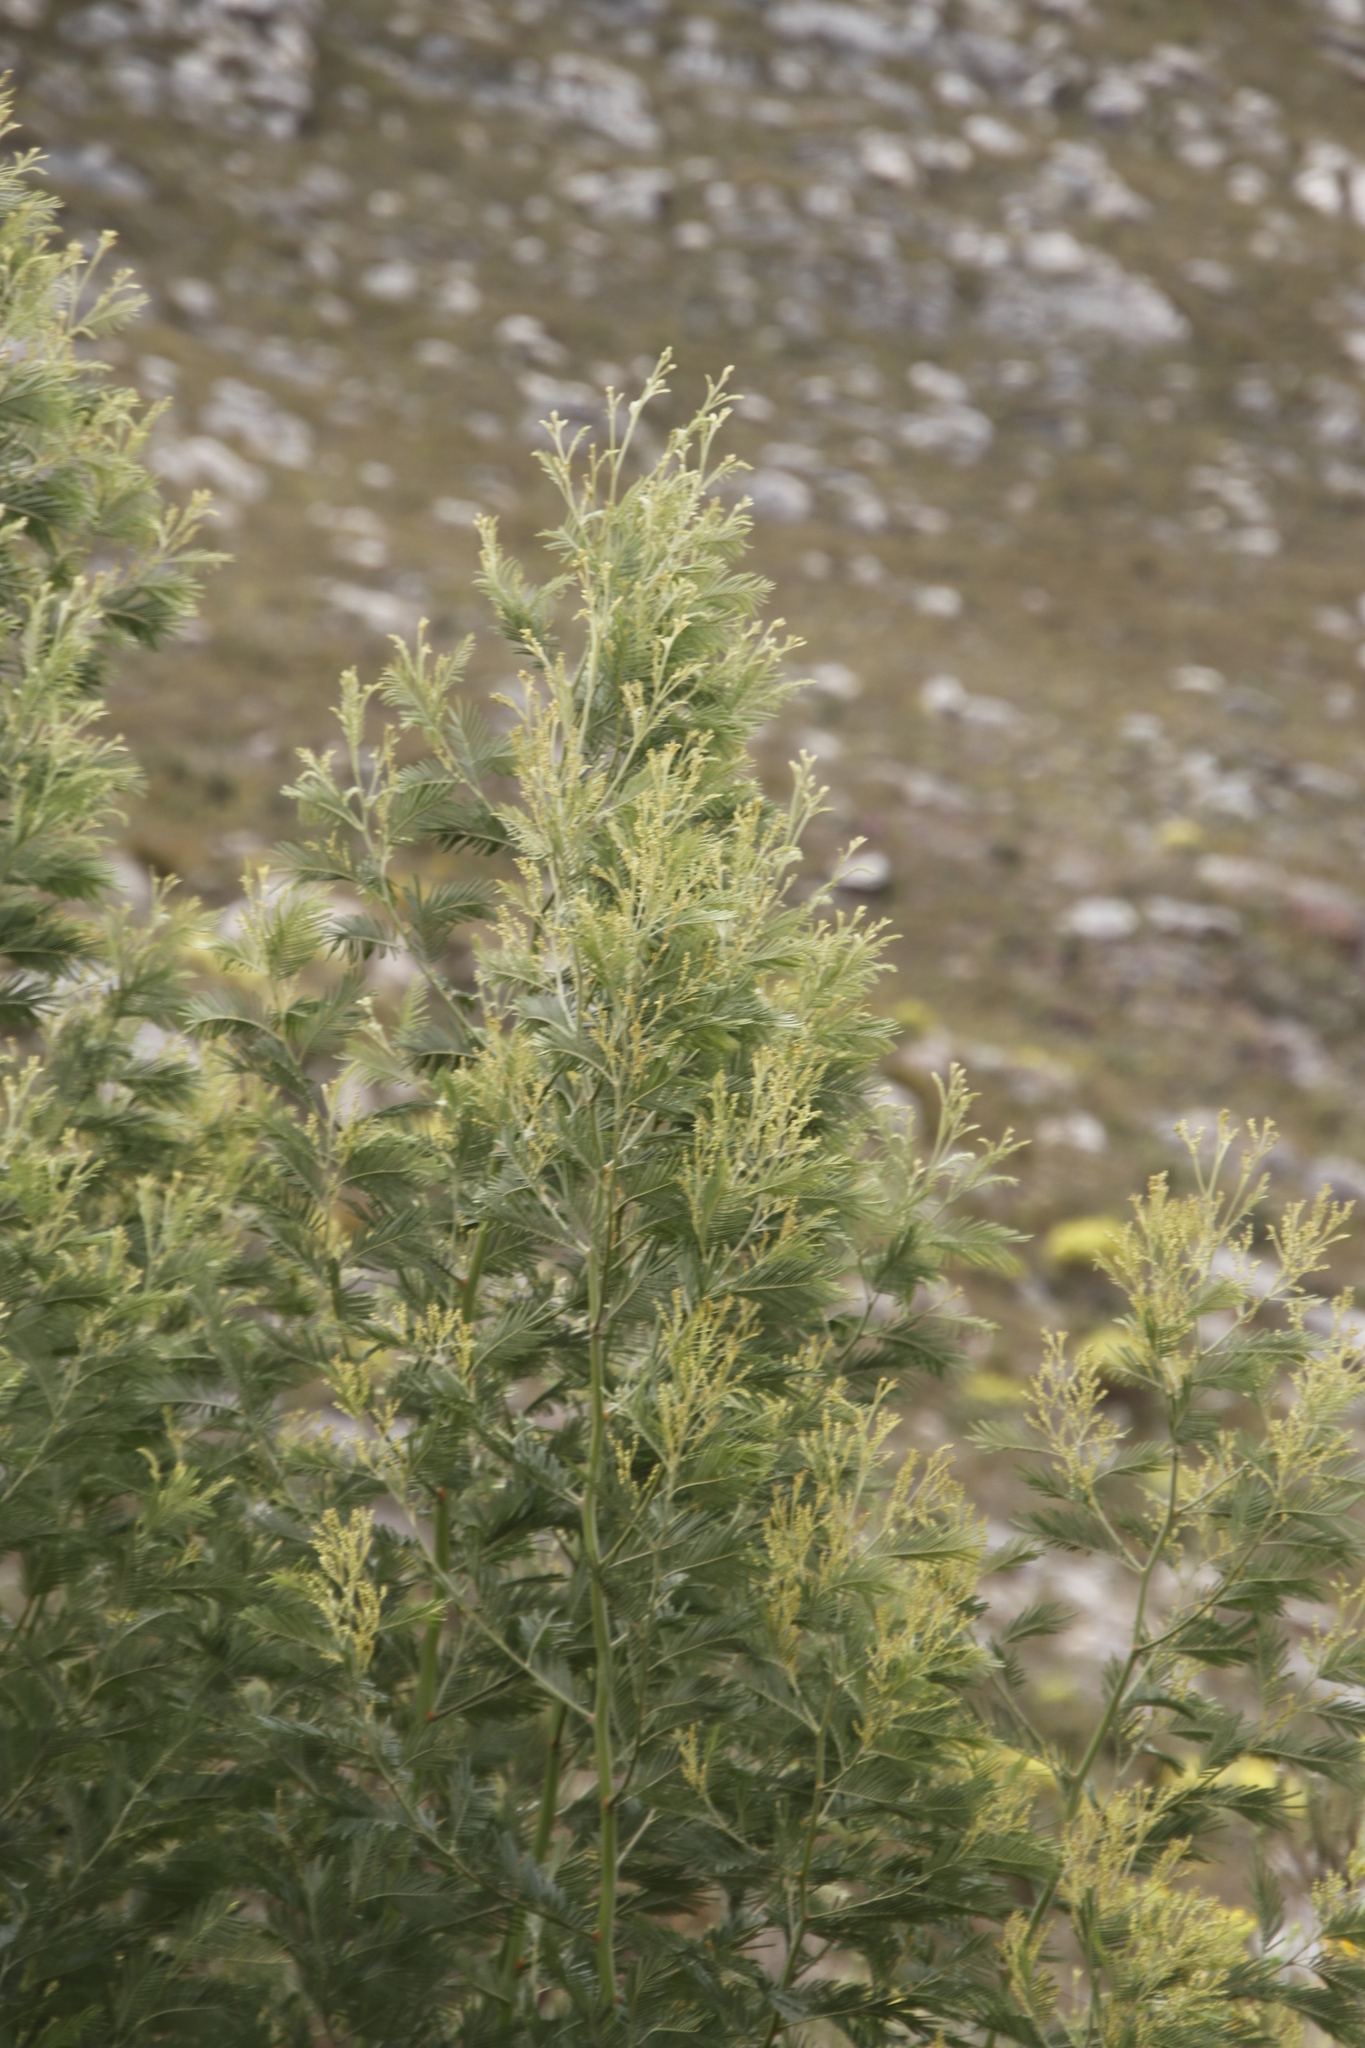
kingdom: Plantae
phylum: Tracheophyta
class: Magnoliopsida
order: Fabales
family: Fabaceae
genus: Acacia
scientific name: Acacia mearnsii
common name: Black wattle
